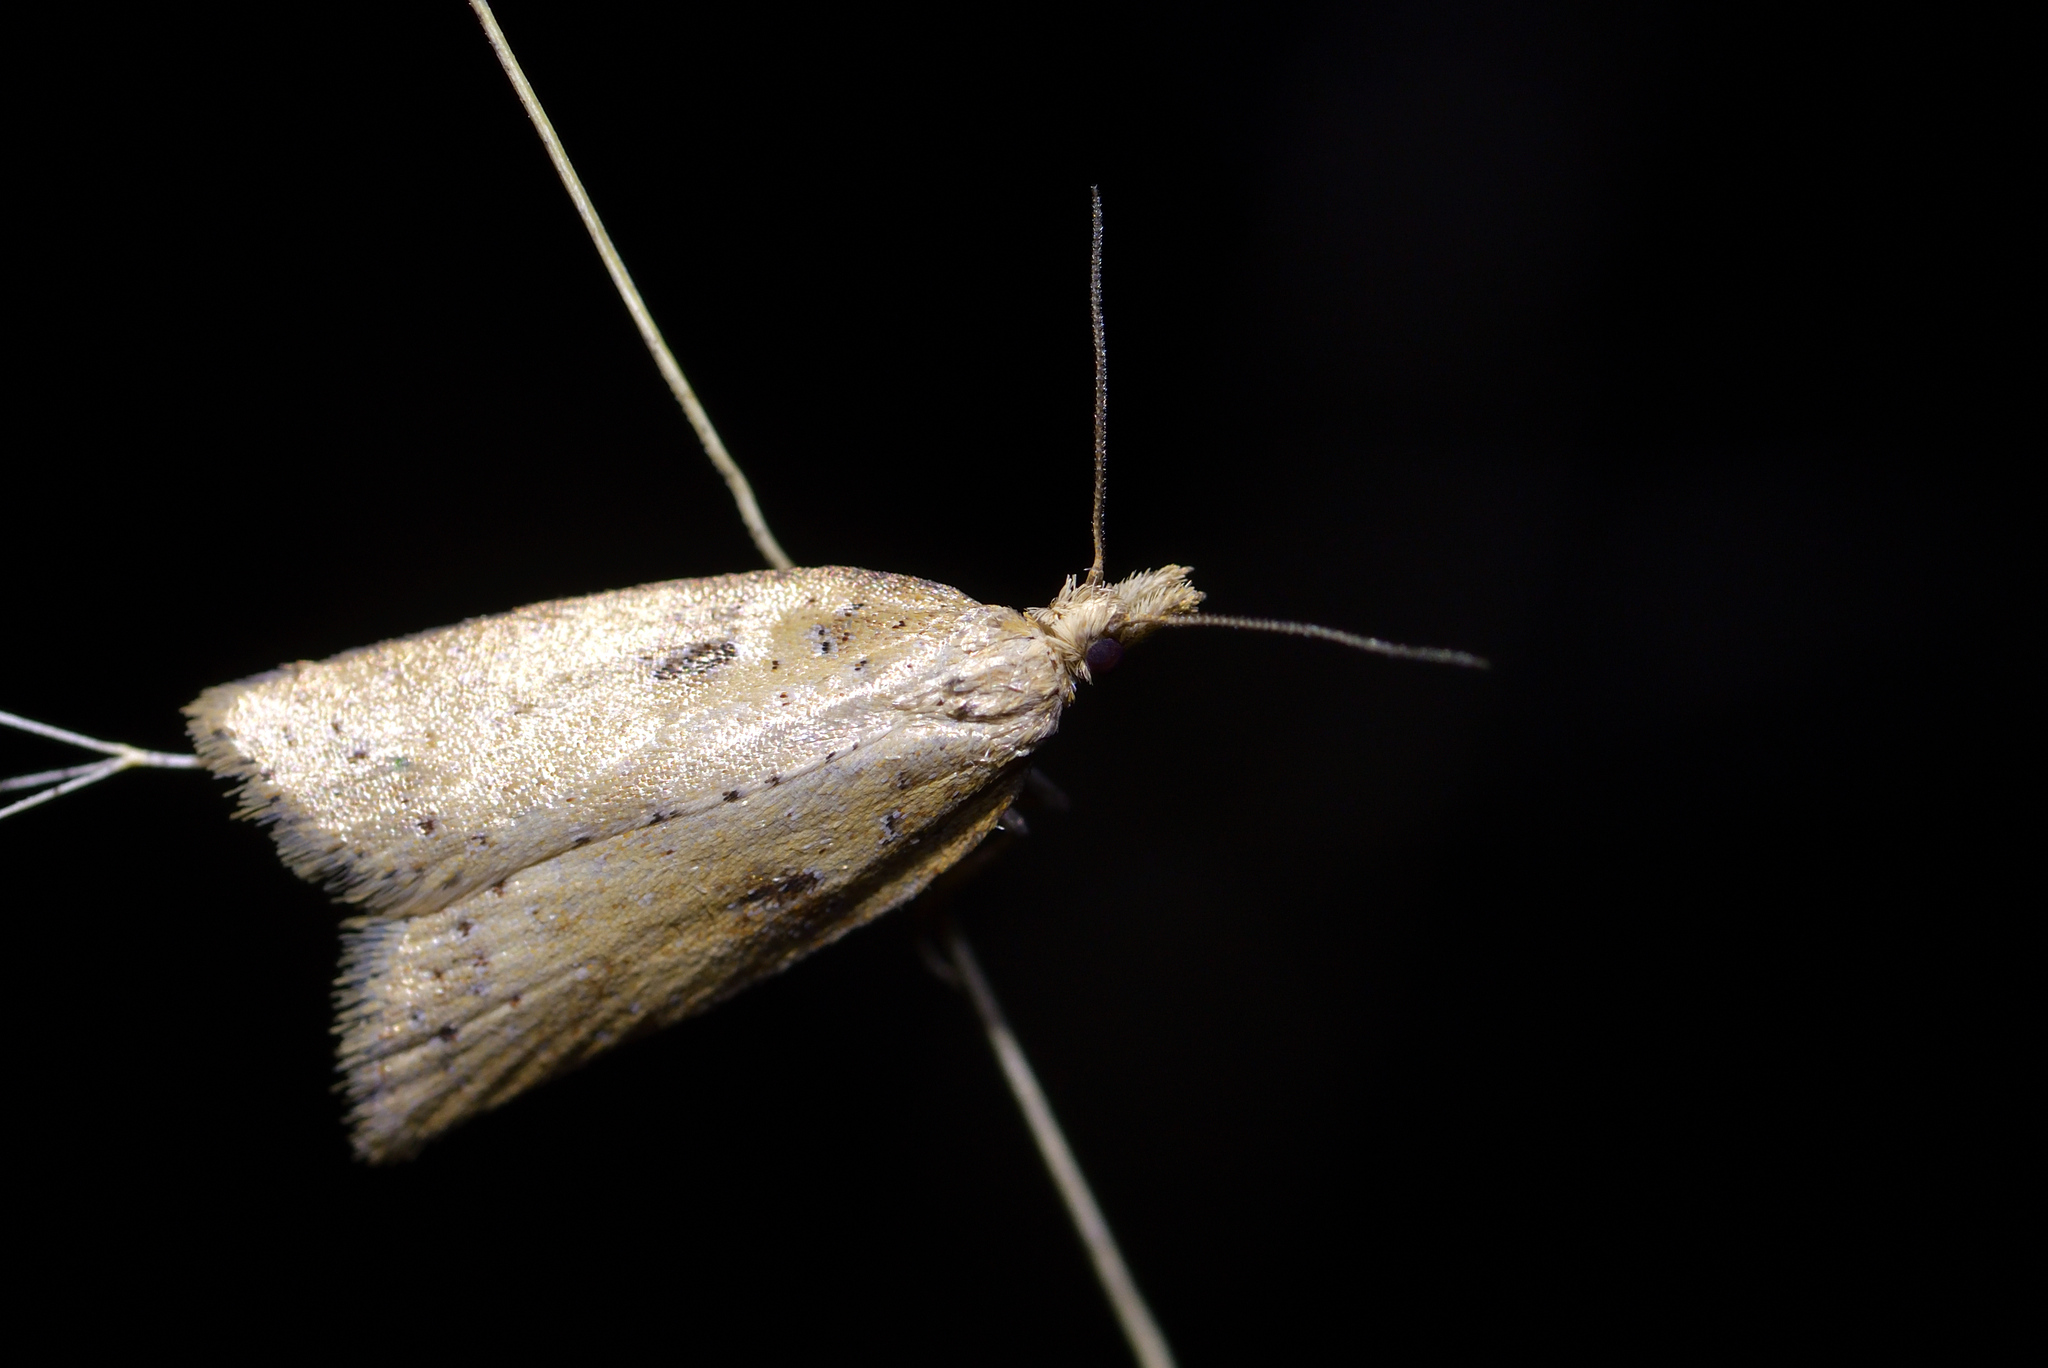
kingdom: Animalia
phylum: Arthropoda
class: Insecta
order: Lepidoptera
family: Tortricidae
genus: Apoctena
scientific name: Apoctena persecta
